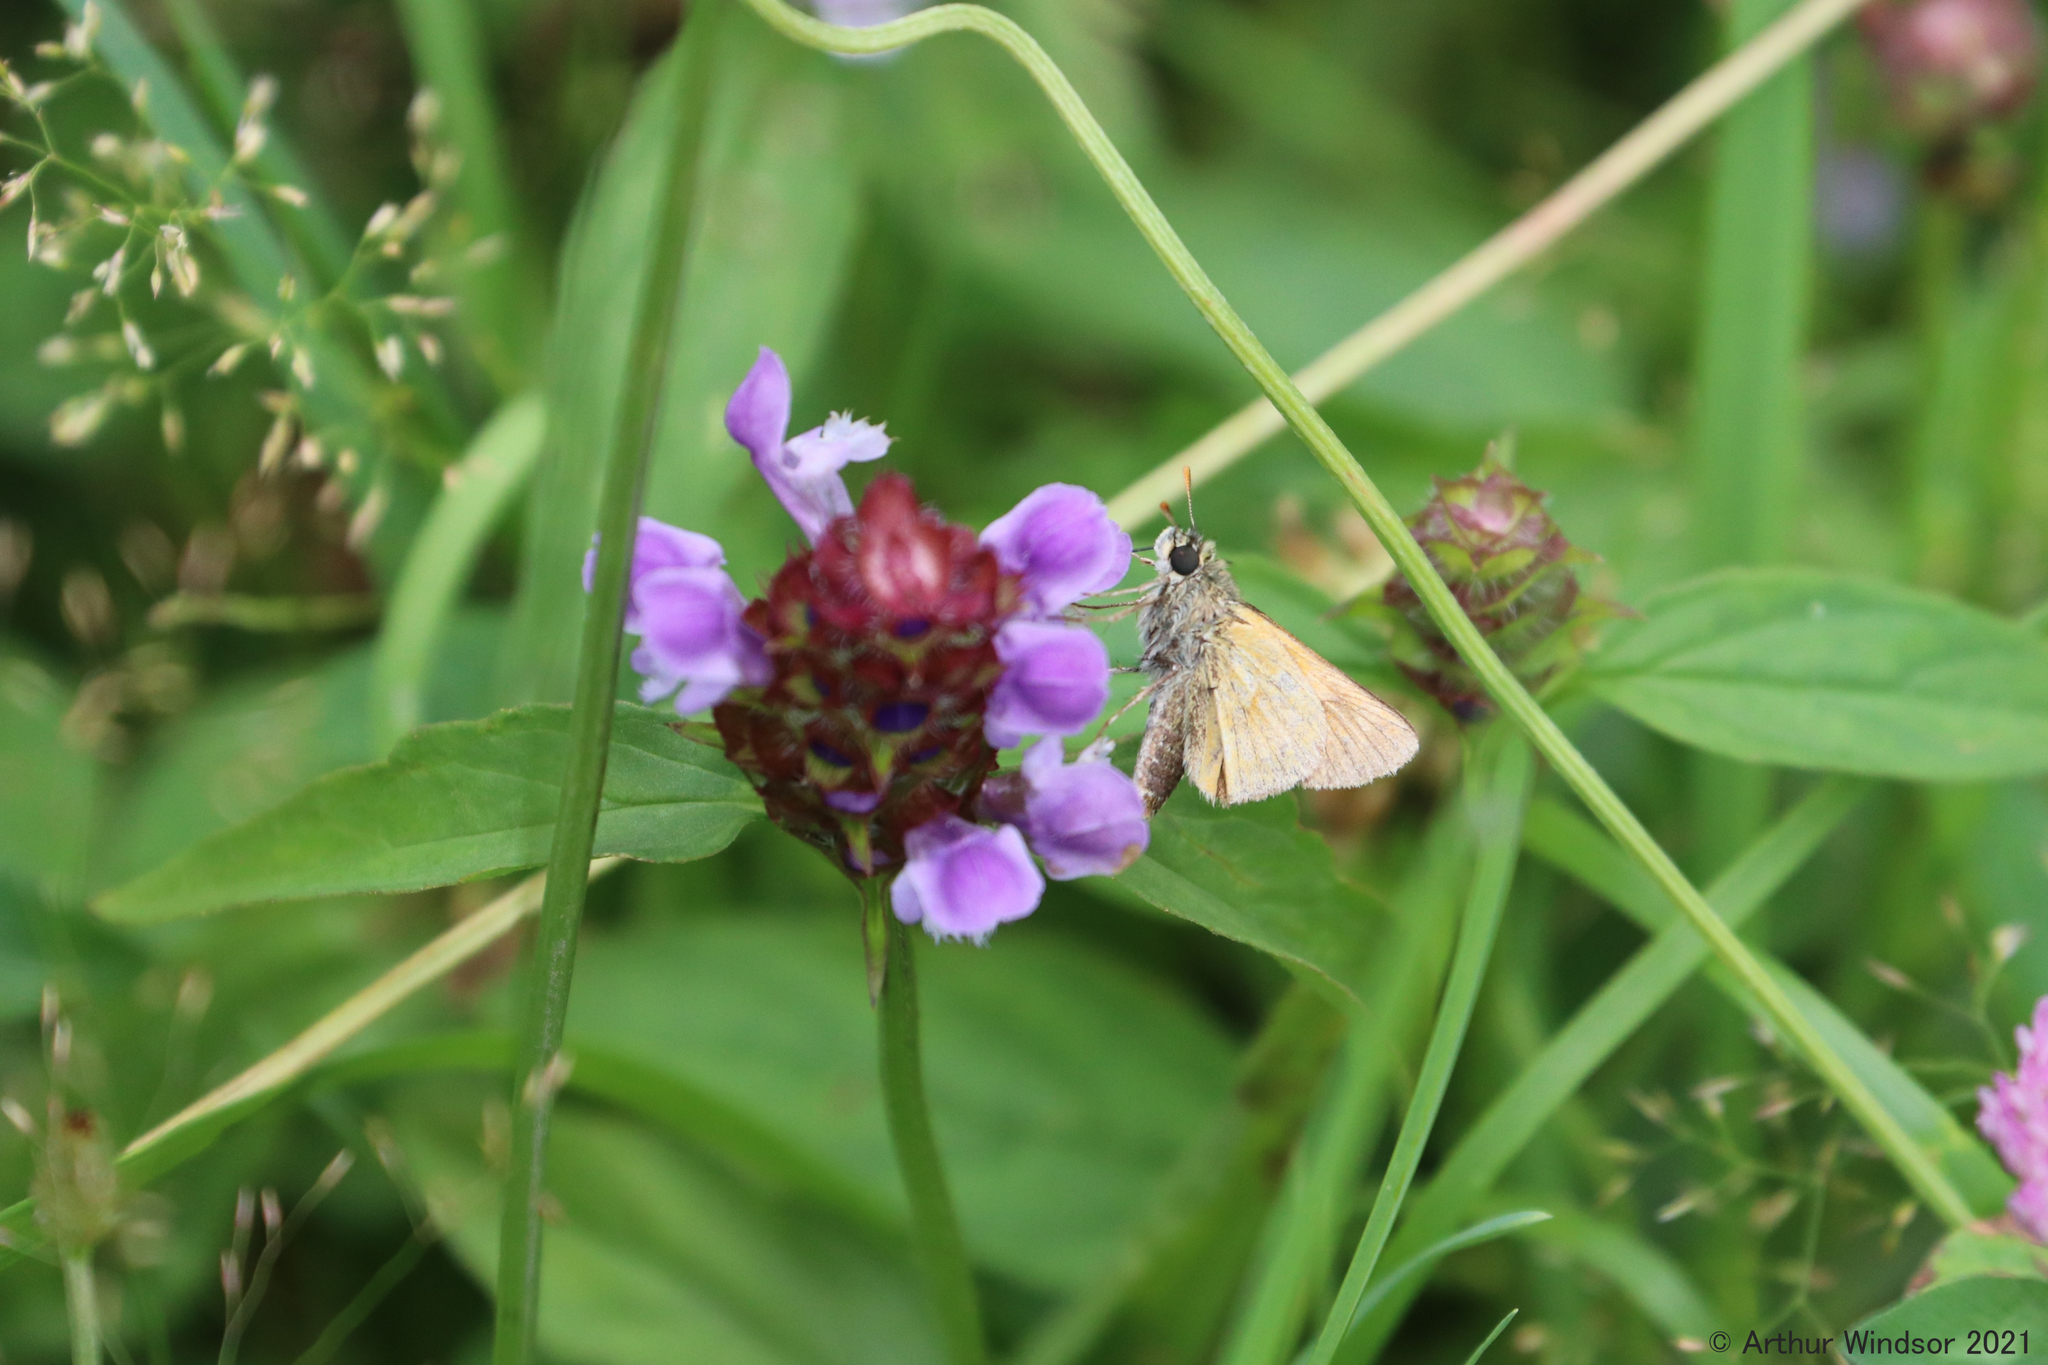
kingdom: Animalia
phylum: Arthropoda
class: Insecta
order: Lepidoptera
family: Hesperiidae
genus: Polites
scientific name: Polites mystic
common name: Long dash
